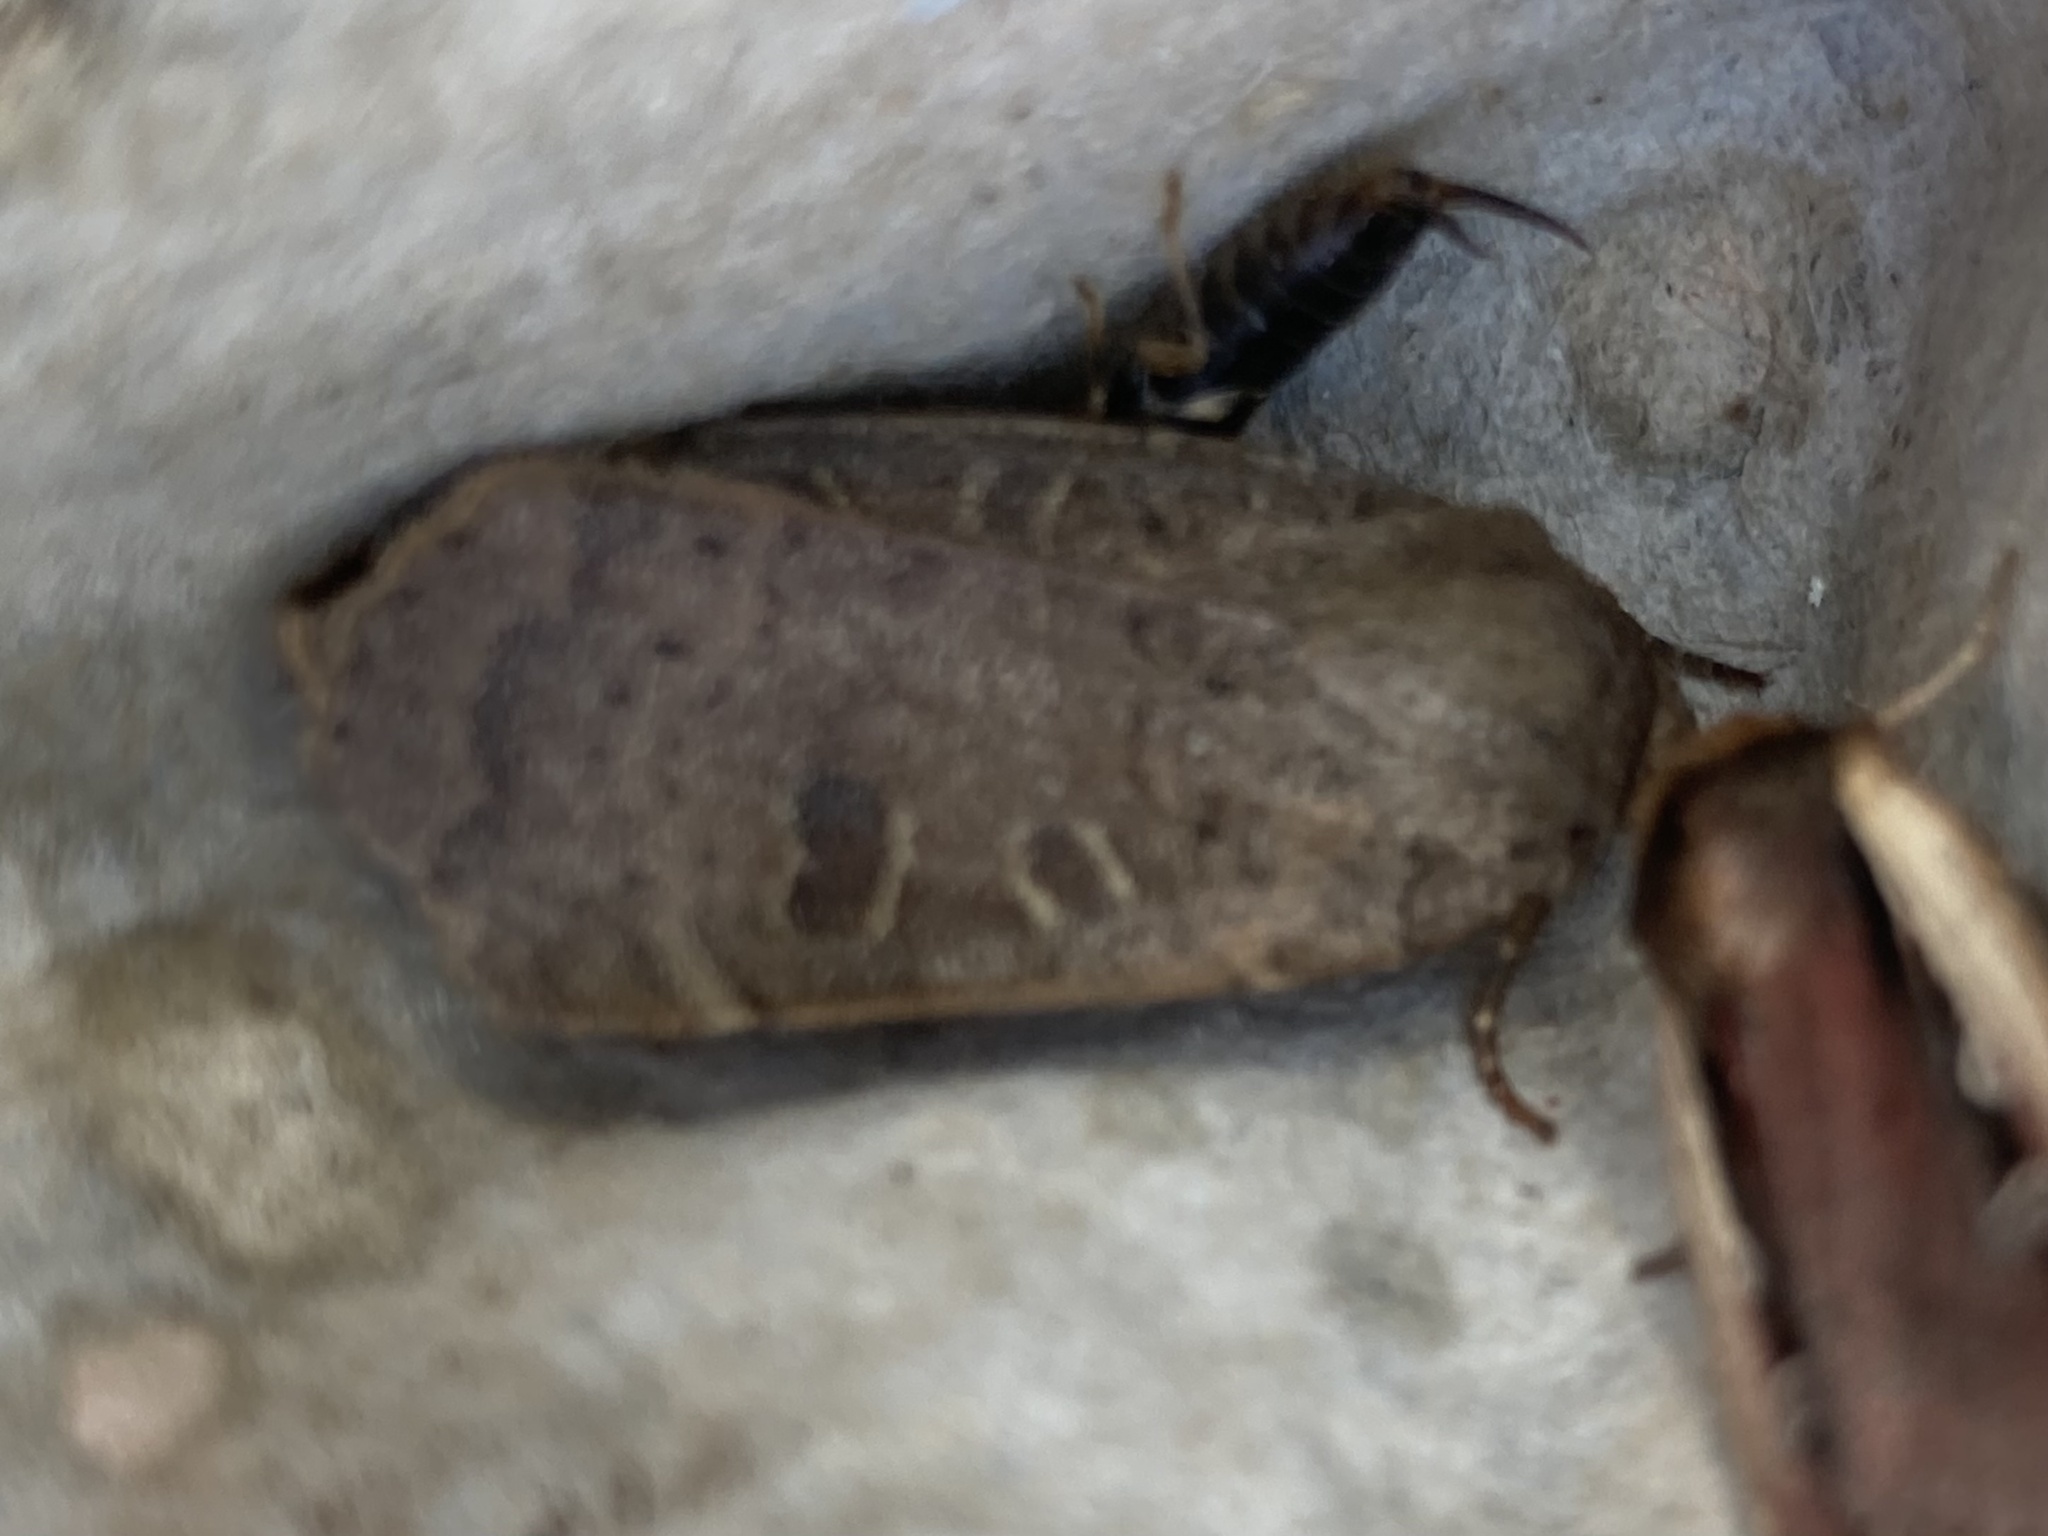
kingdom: Animalia
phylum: Arthropoda
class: Insecta
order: Lepidoptera
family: Noctuidae
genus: Noctua
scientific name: Noctua comes
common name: Lesser yellow underwing
